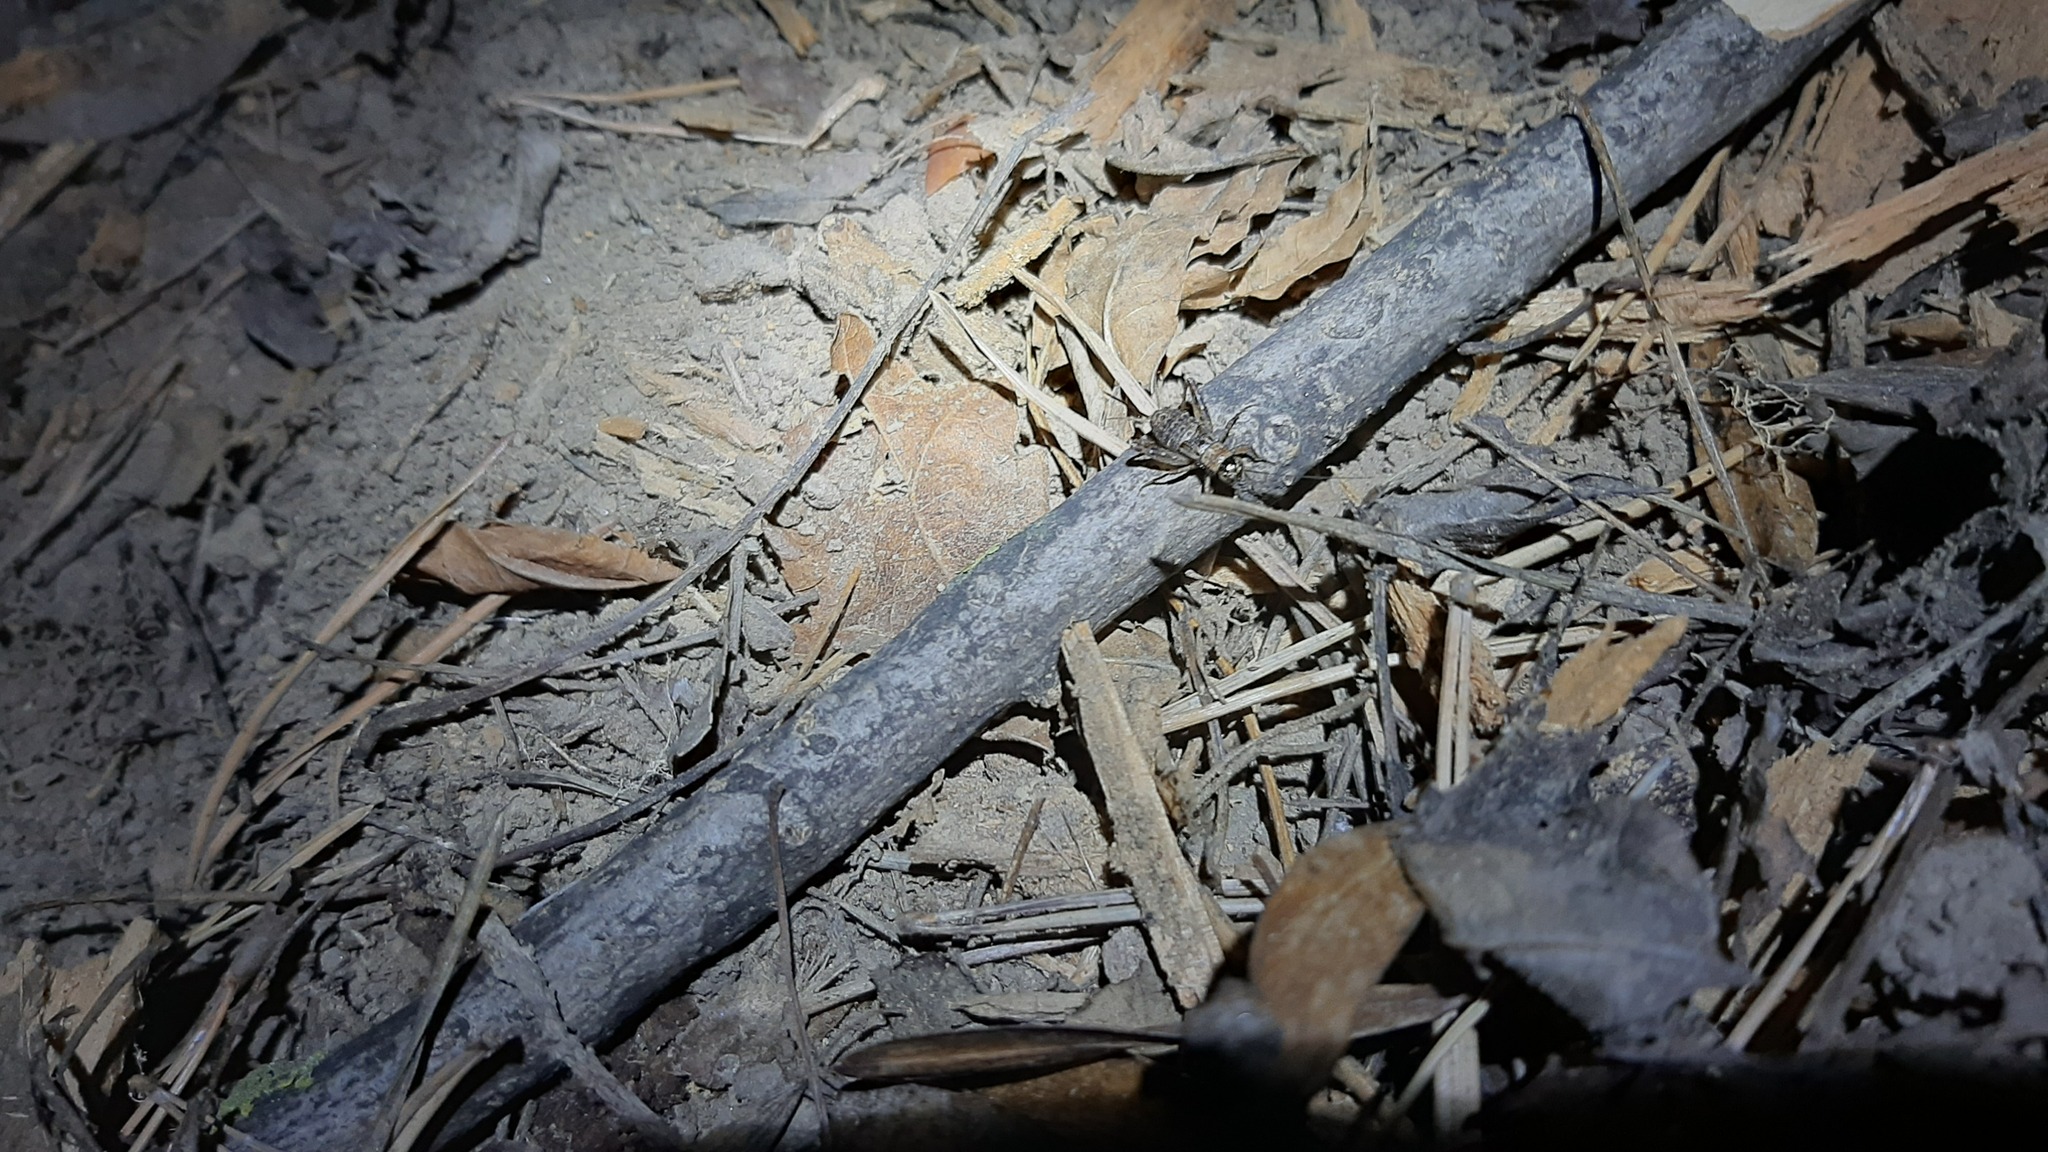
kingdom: Animalia
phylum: Arthropoda
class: Insecta
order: Orthoptera
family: Trigonidiidae
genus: Nemobius
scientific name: Nemobius sylvestris
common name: Wood-cricket
